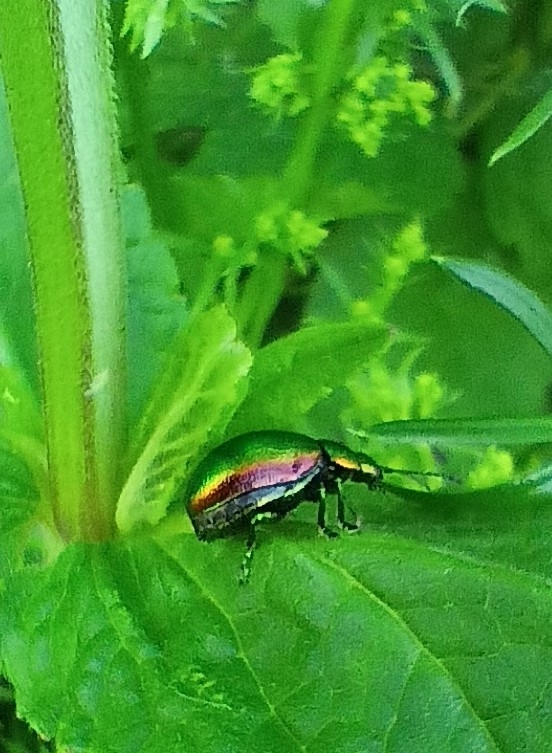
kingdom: Animalia
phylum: Arthropoda
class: Insecta
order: Coleoptera
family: Chrysomelidae
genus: Chrysolina
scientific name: Chrysolina graminis
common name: Tansey beetle
